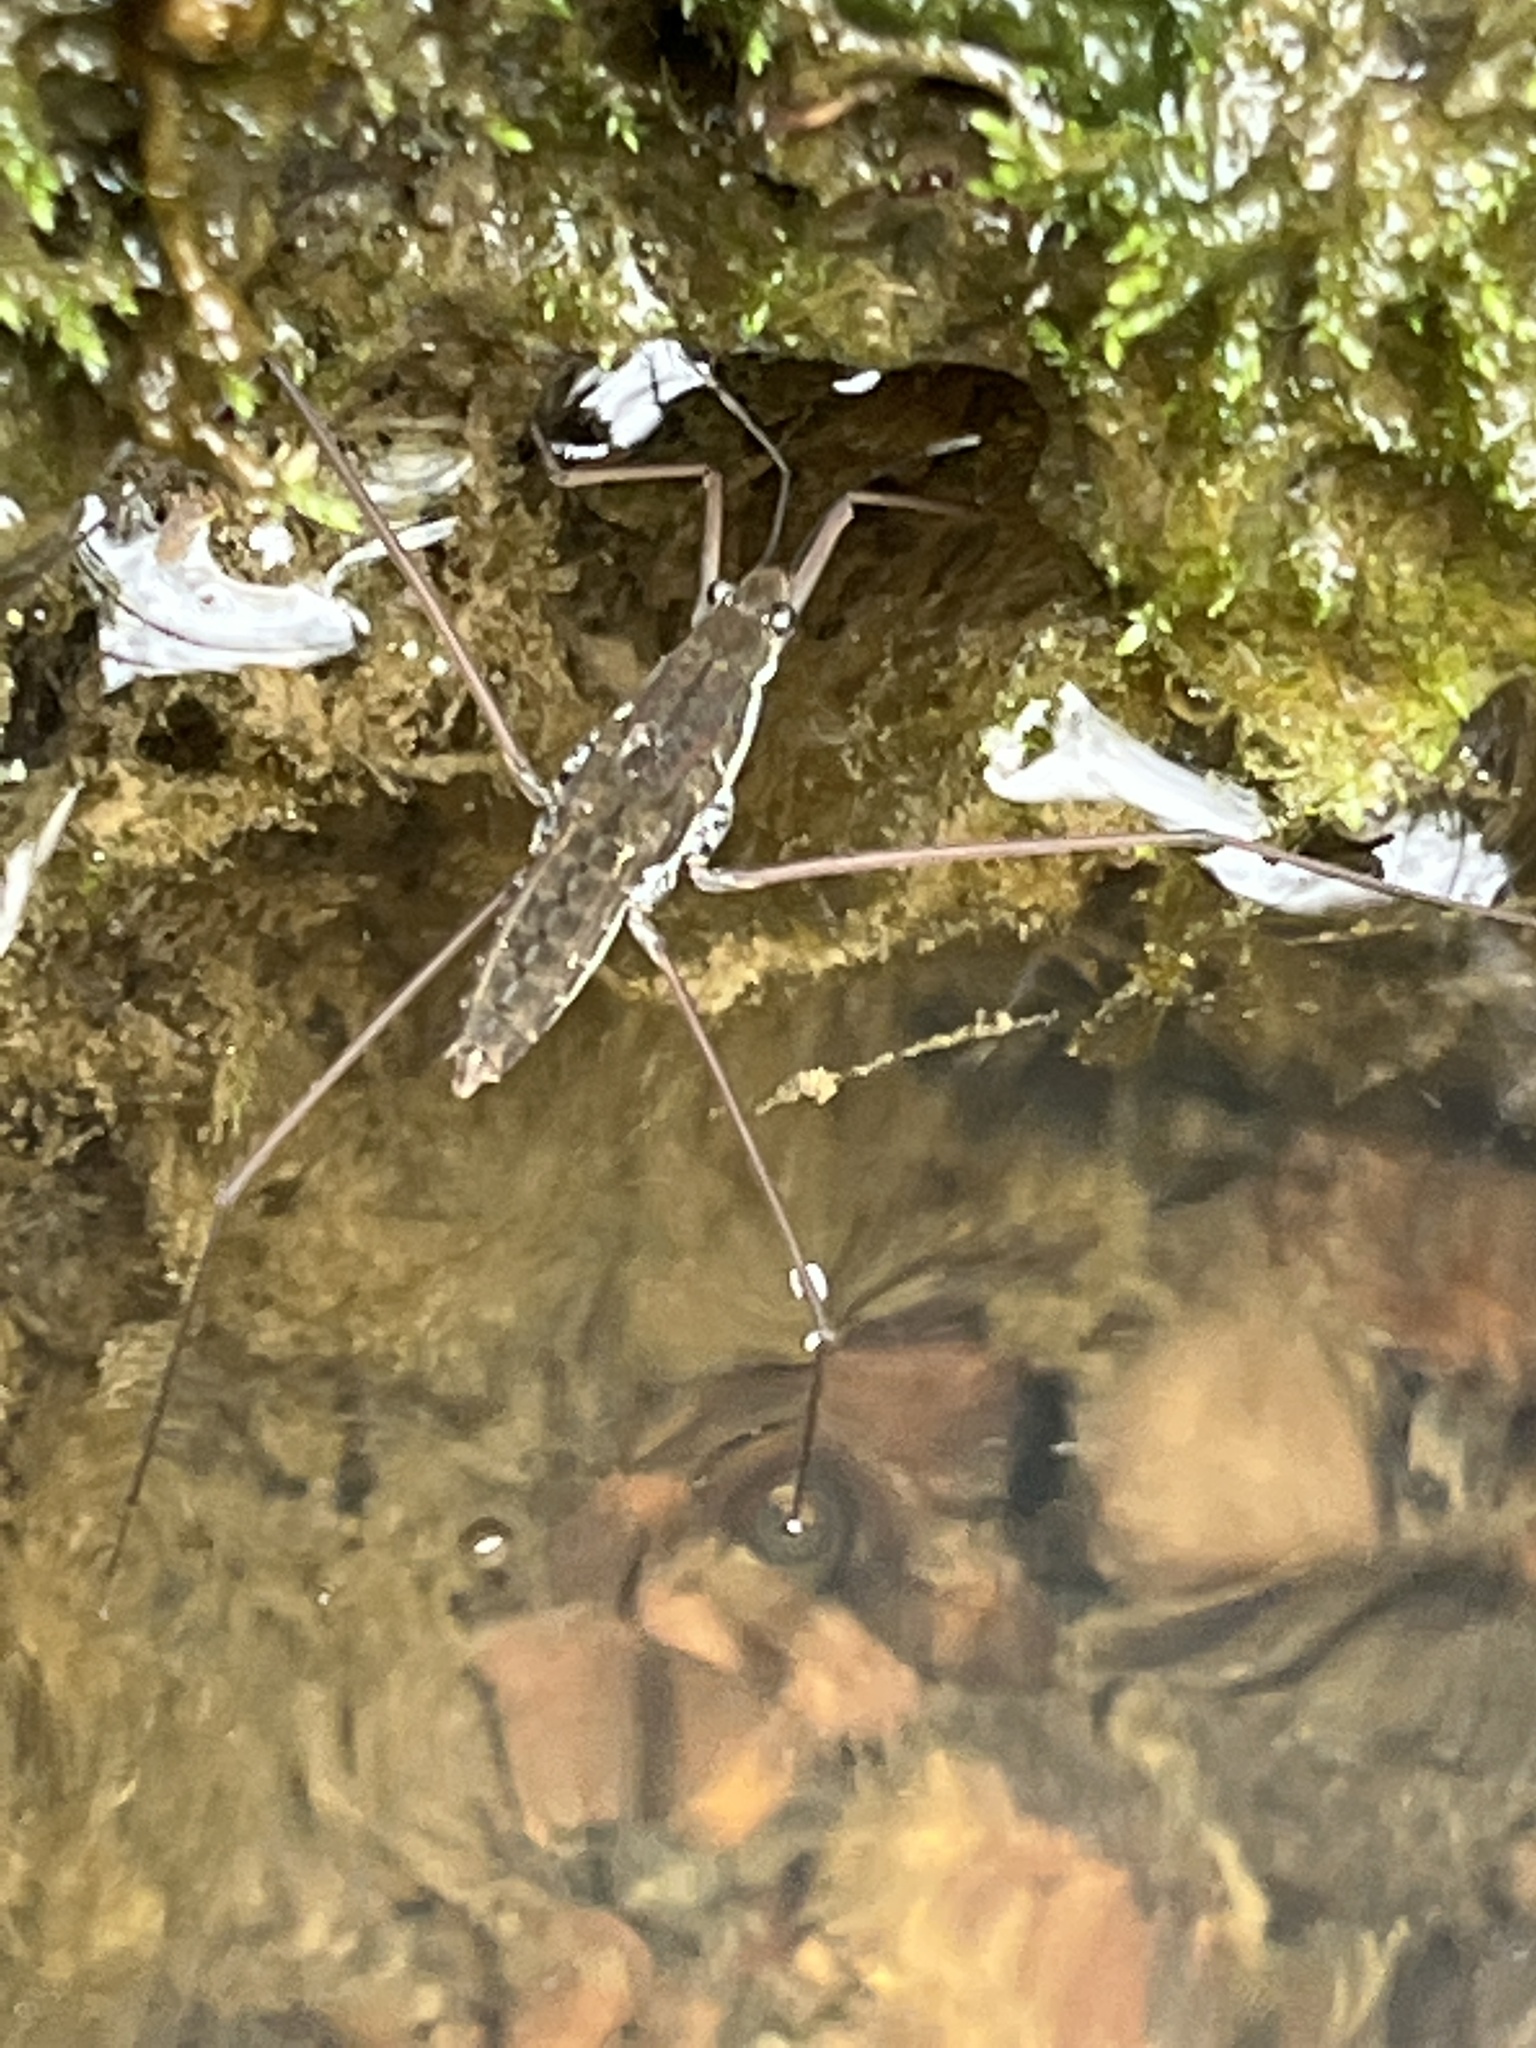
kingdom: Animalia
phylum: Arthropoda
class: Insecta
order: Hemiptera
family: Gerridae
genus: Aquarius
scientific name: Aquarius
